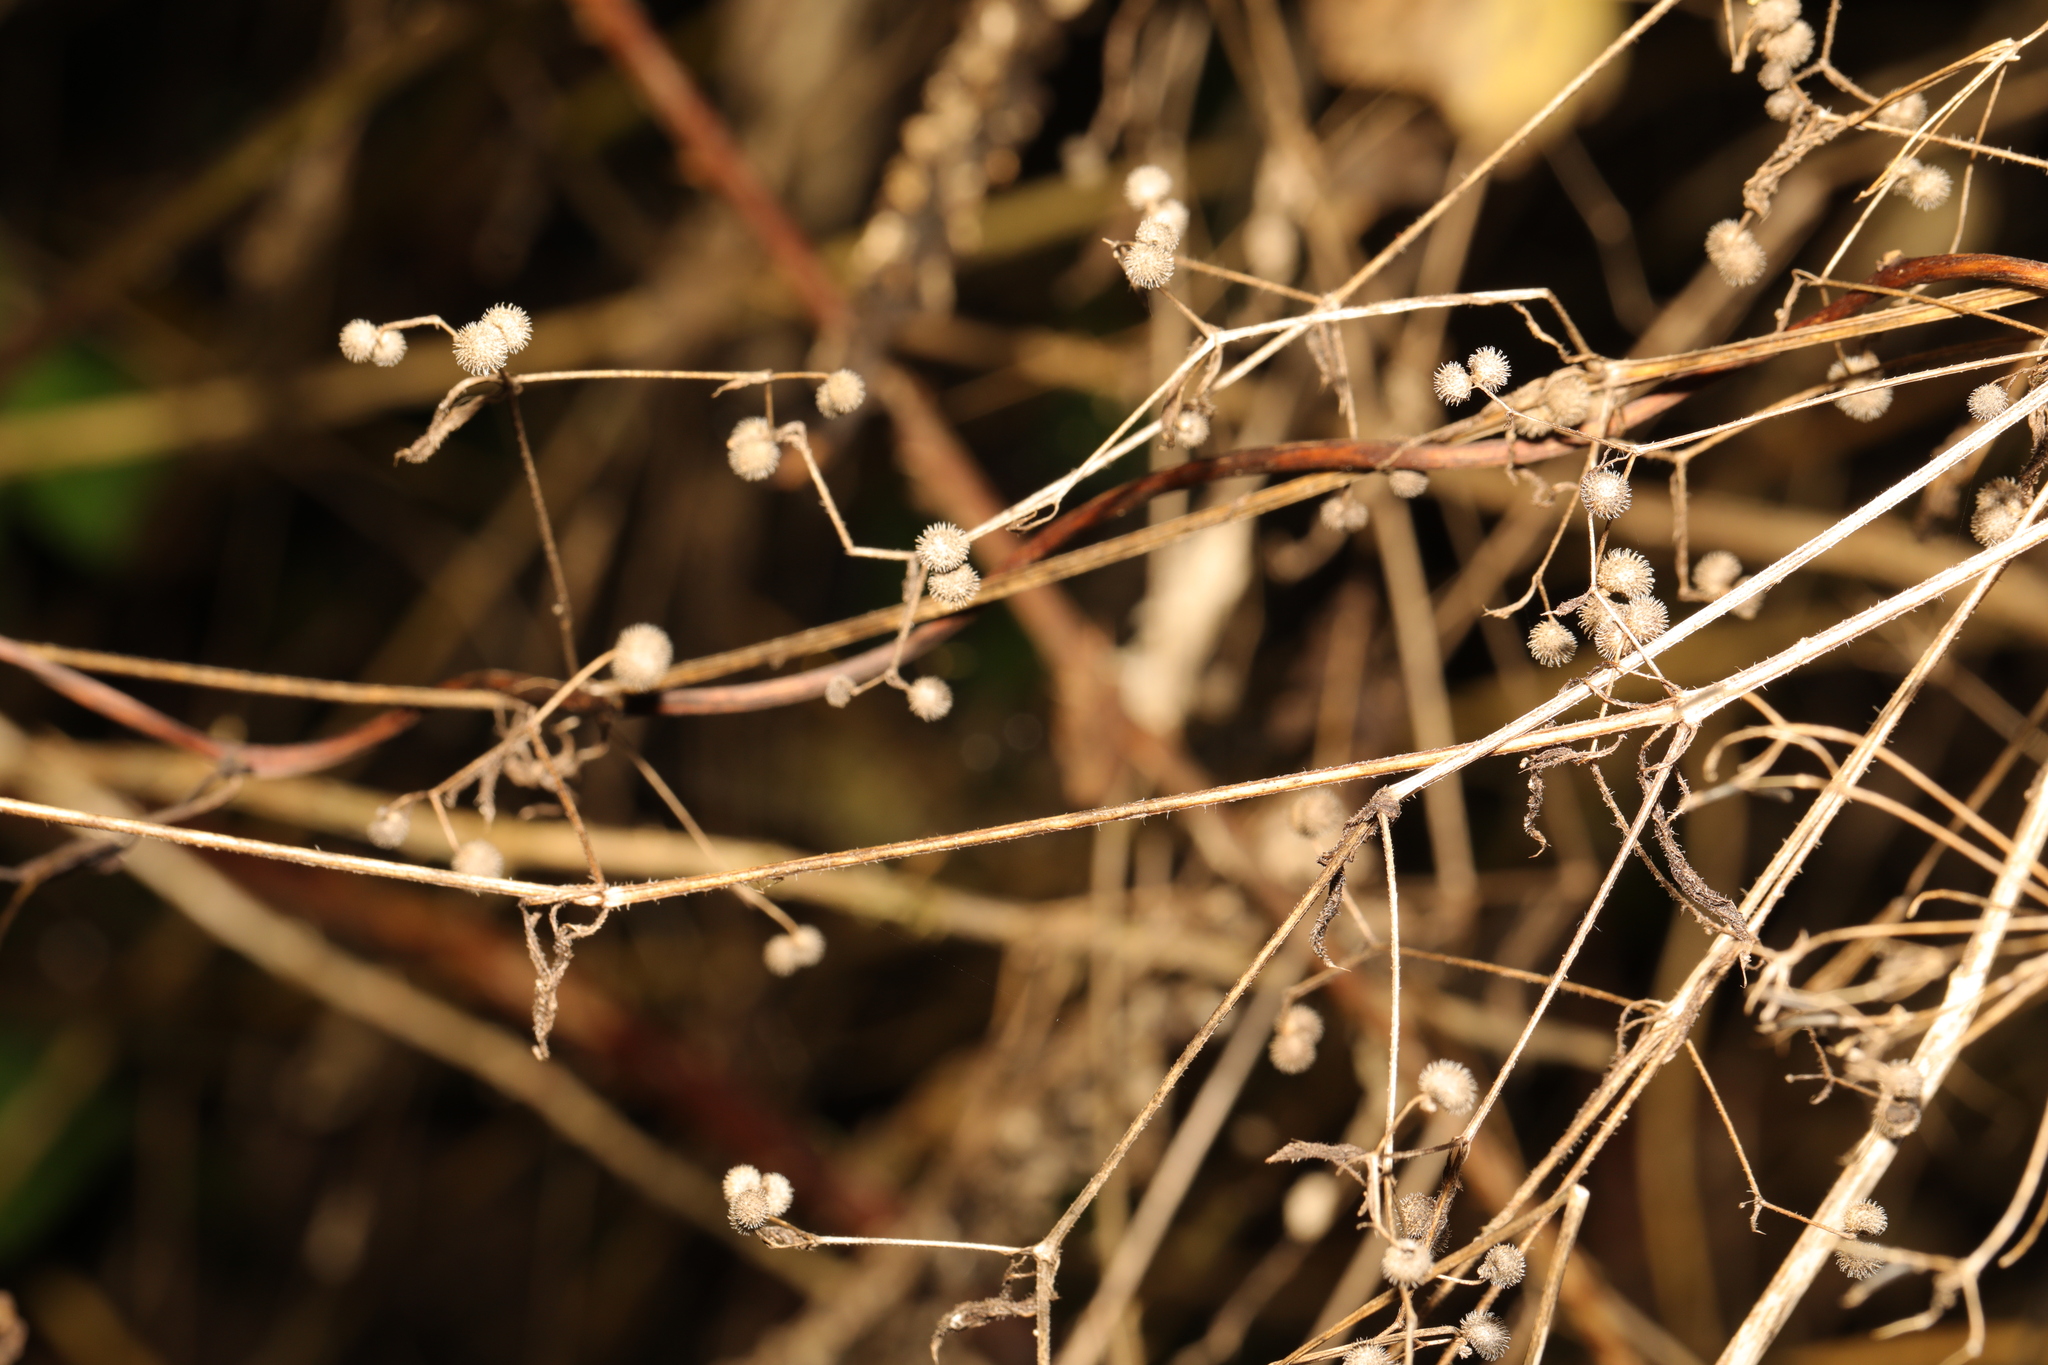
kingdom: Plantae
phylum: Tracheophyta
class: Magnoliopsida
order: Gentianales
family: Rubiaceae
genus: Galium
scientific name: Galium aparine
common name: Cleavers
